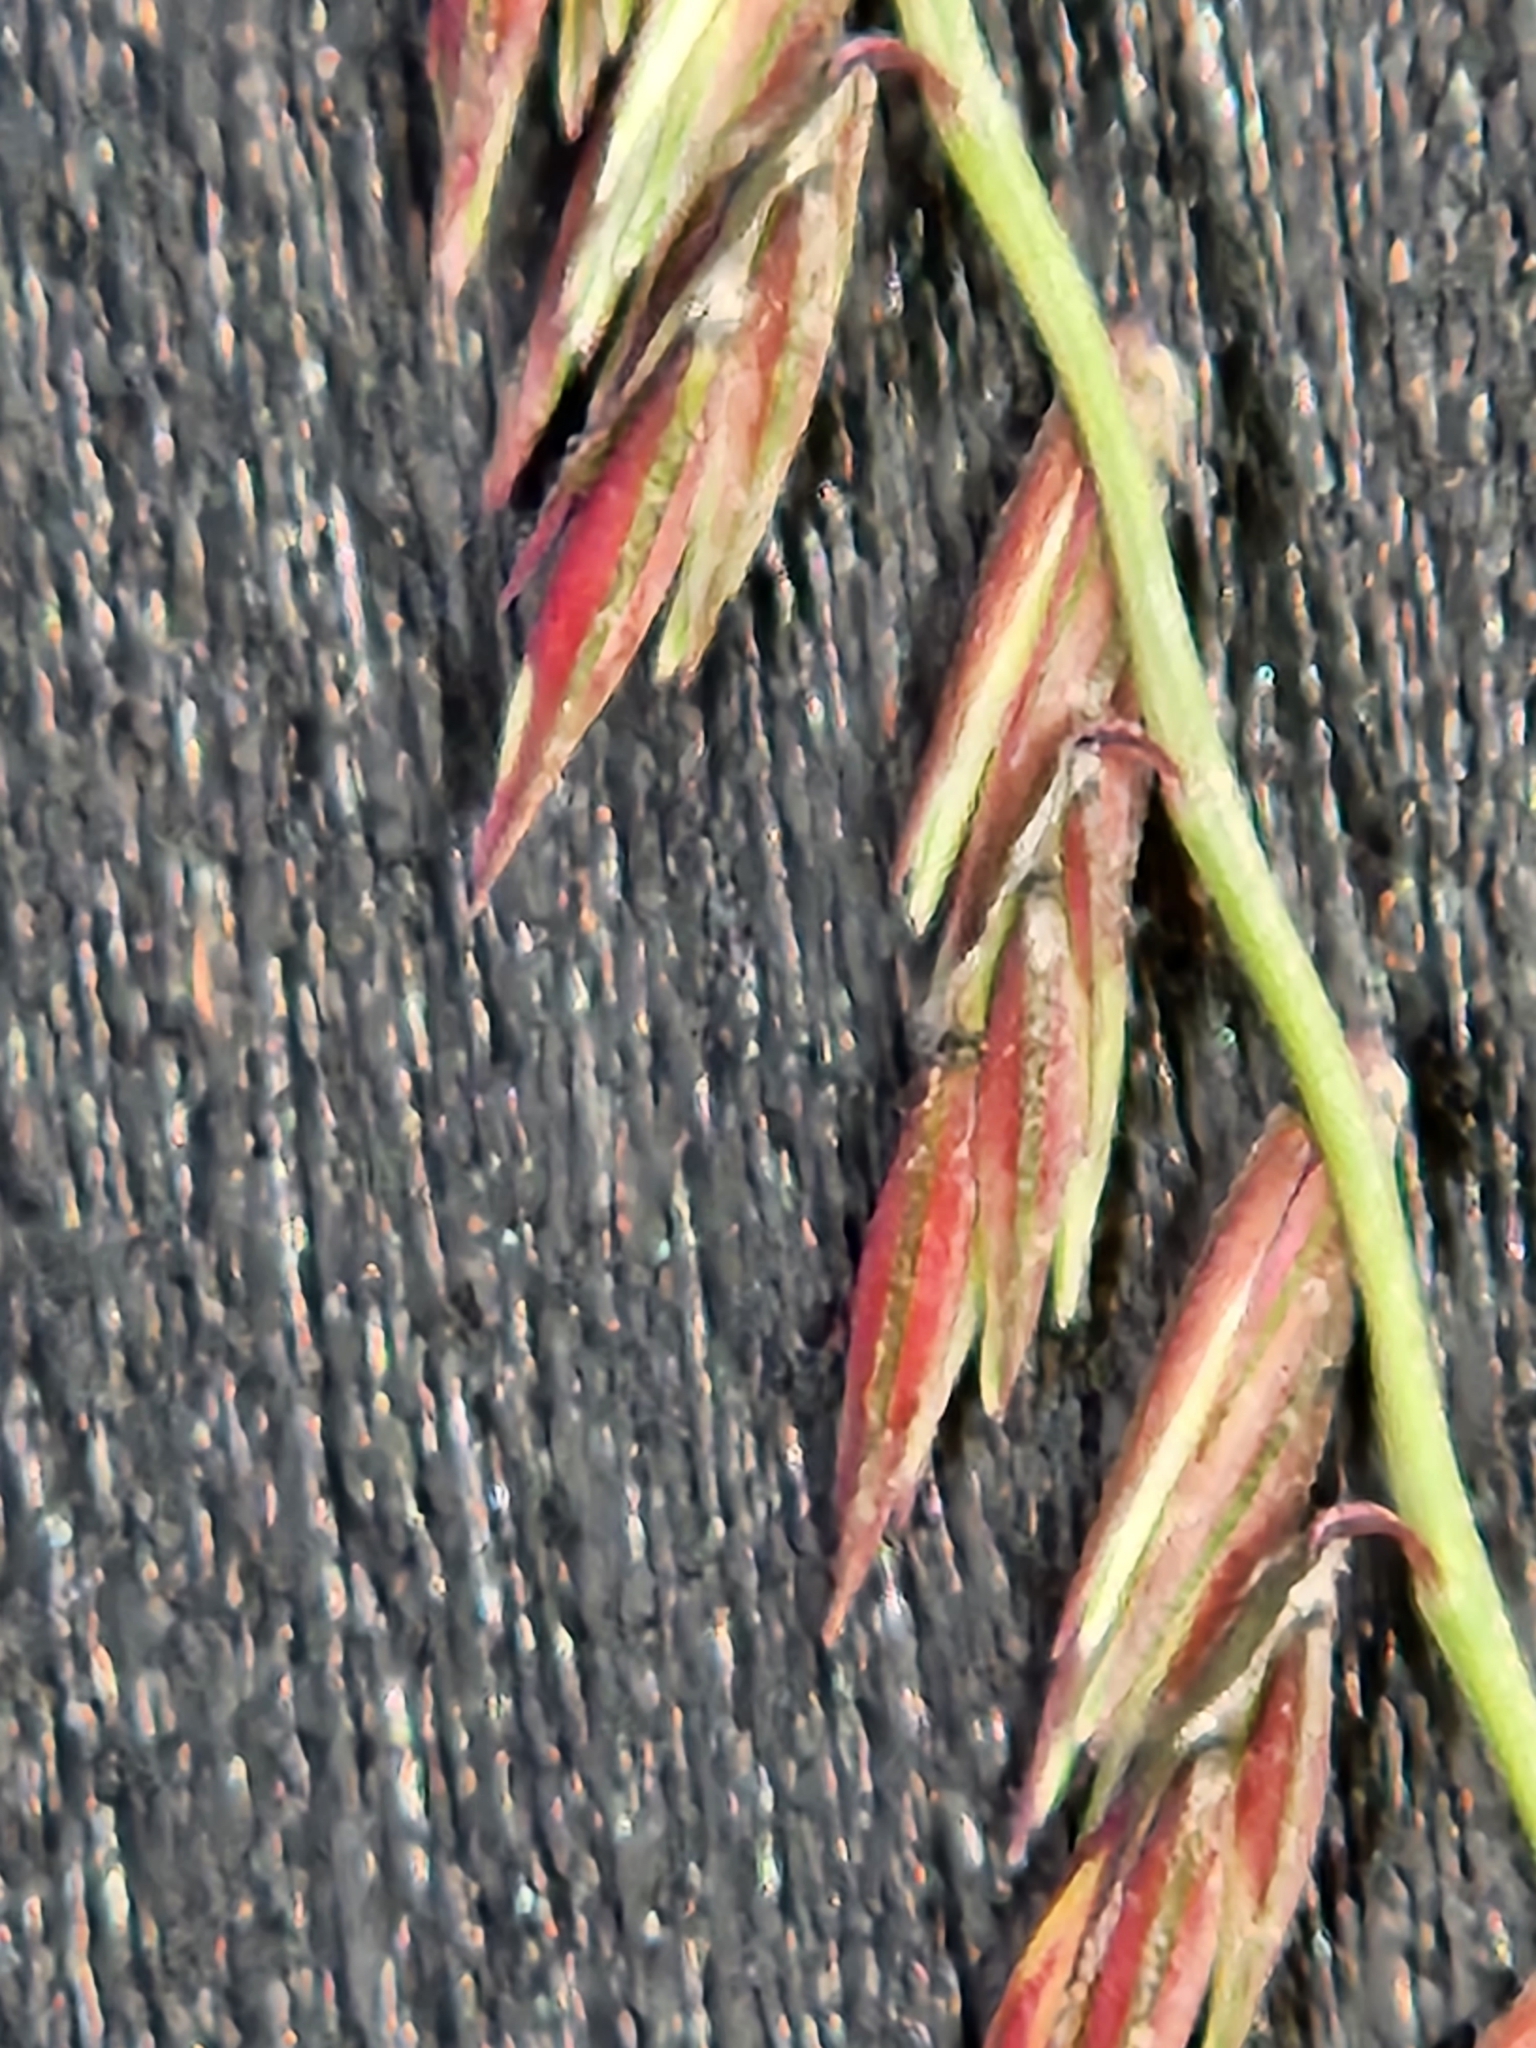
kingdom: Plantae
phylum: Tracheophyta
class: Liliopsida
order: Poales
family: Poaceae
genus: Bouteloua
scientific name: Bouteloua curtipendula
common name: Side-oats grama
